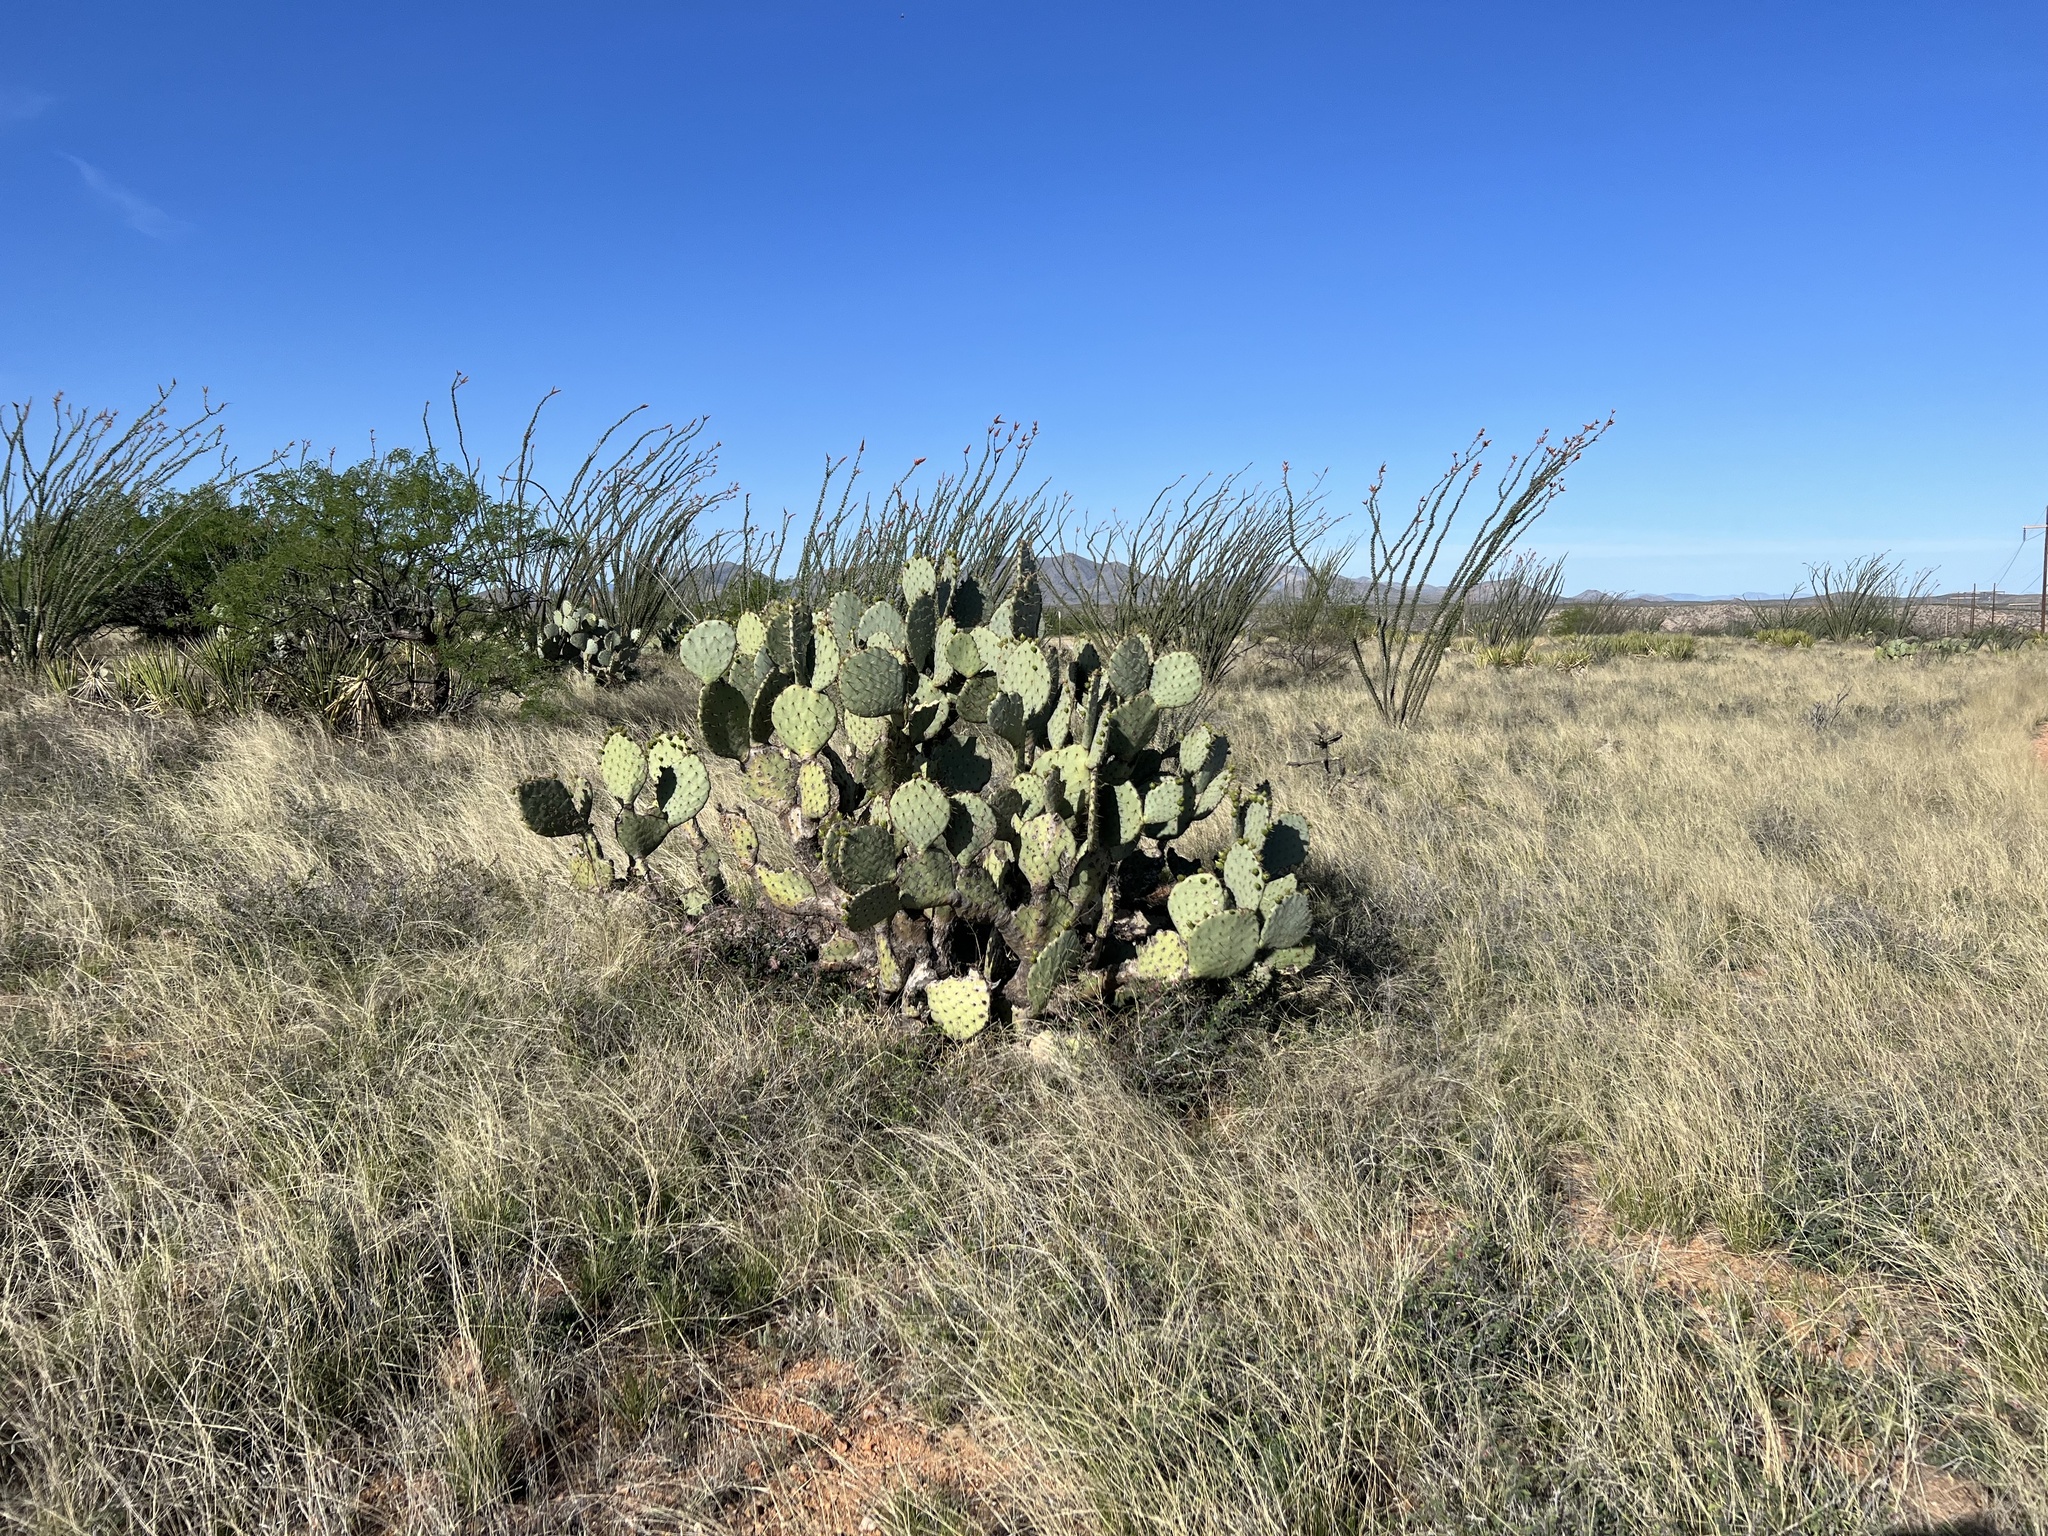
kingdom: Plantae
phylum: Tracheophyta
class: Magnoliopsida
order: Caryophyllales
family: Cactaceae
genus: Opuntia
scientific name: Opuntia engelmannii
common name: Cactus-apple
